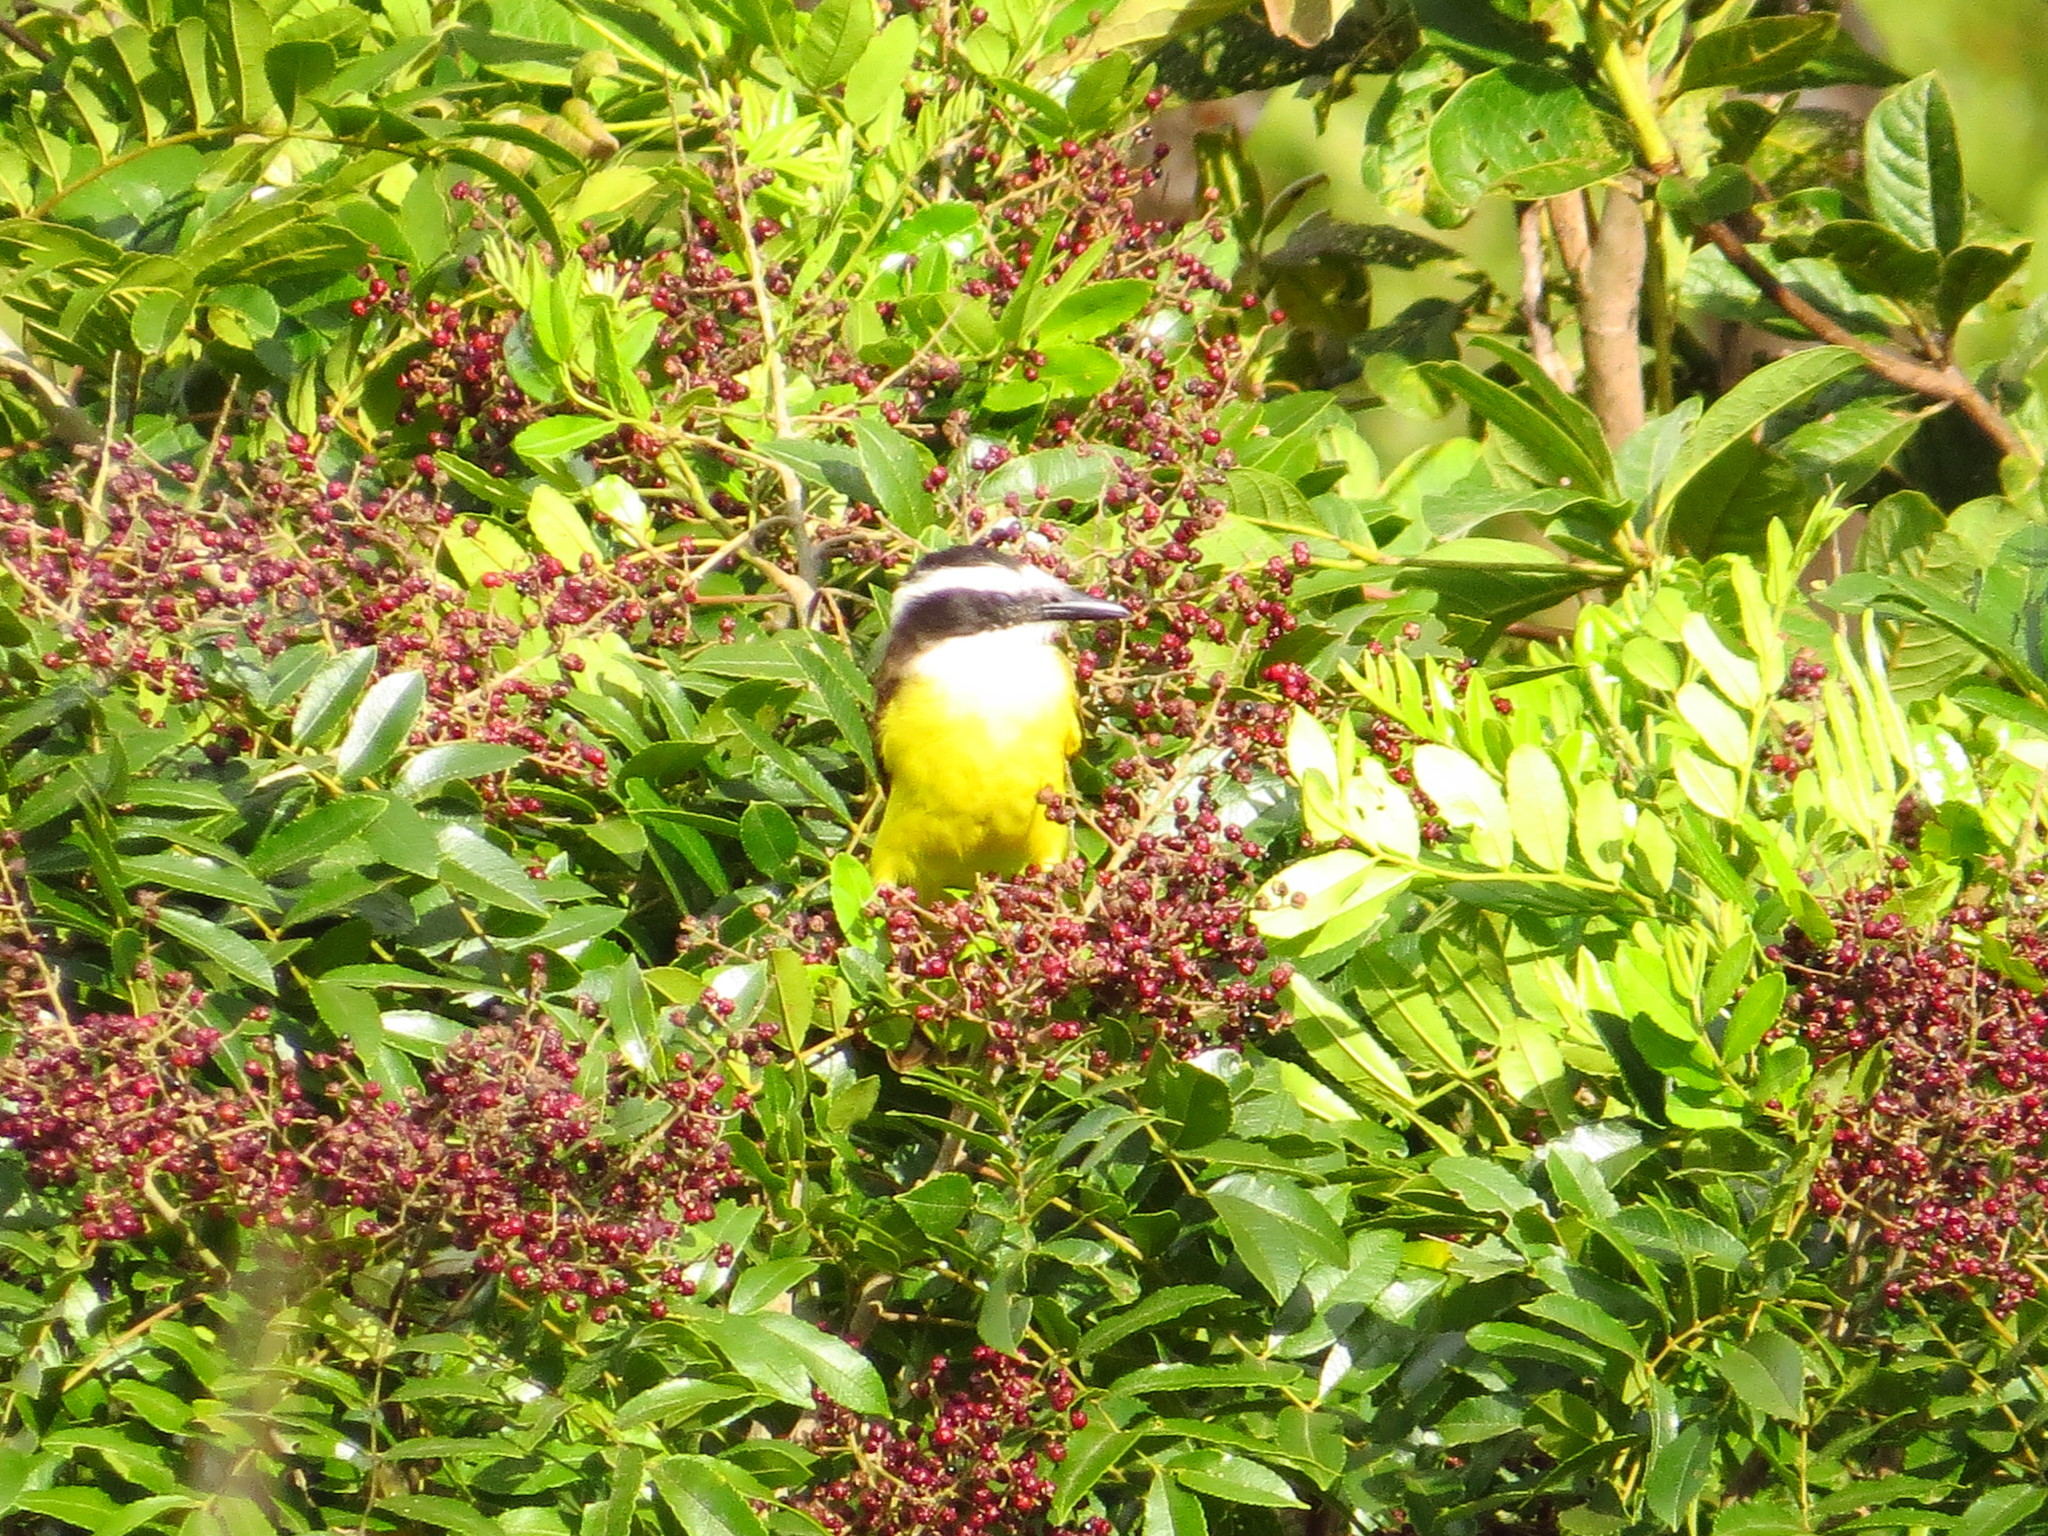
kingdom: Animalia
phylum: Chordata
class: Aves
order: Passeriformes
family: Tyrannidae
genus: Pitangus
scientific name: Pitangus sulphuratus
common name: Great kiskadee
